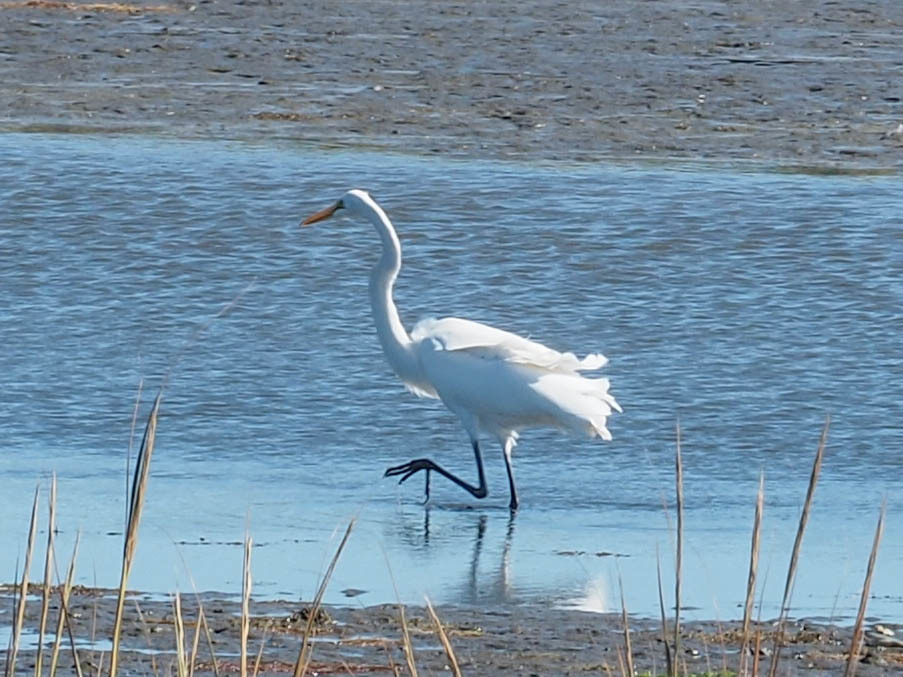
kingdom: Animalia
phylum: Chordata
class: Aves
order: Pelecaniformes
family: Ardeidae
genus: Ardea
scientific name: Ardea alba
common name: Great egret
